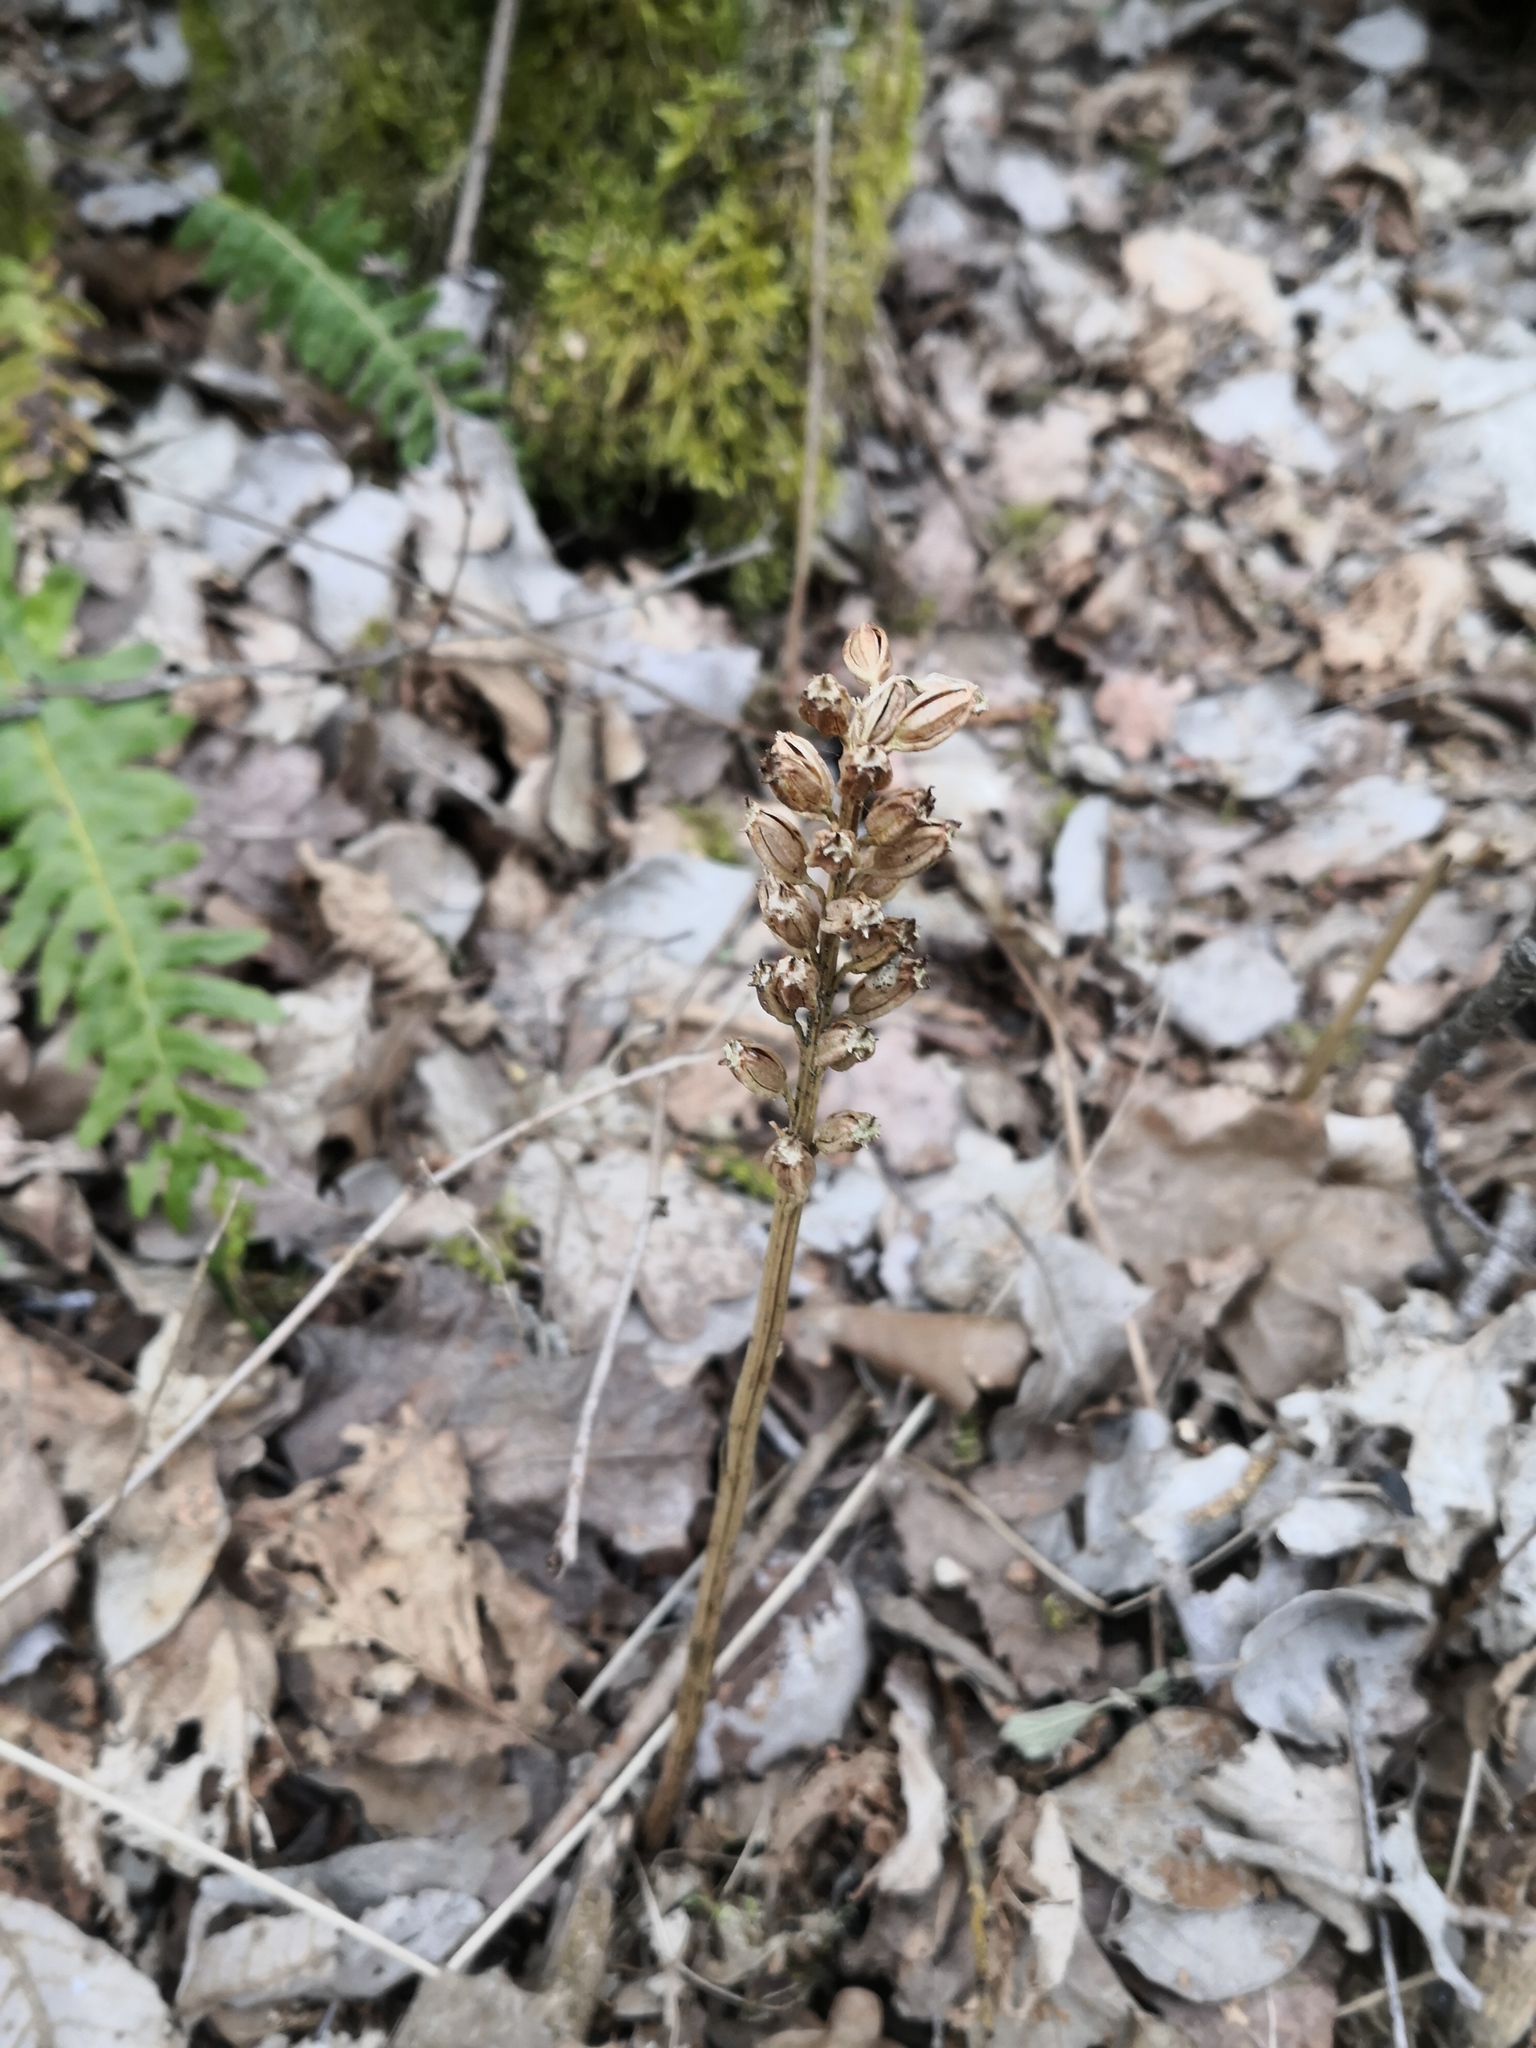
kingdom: Plantae
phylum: Tracheophyta
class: Liliopsida
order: Asparagales
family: Orchidaceae
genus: Neottia
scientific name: Neottia nidus-avis
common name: Bird's-nest orchid
